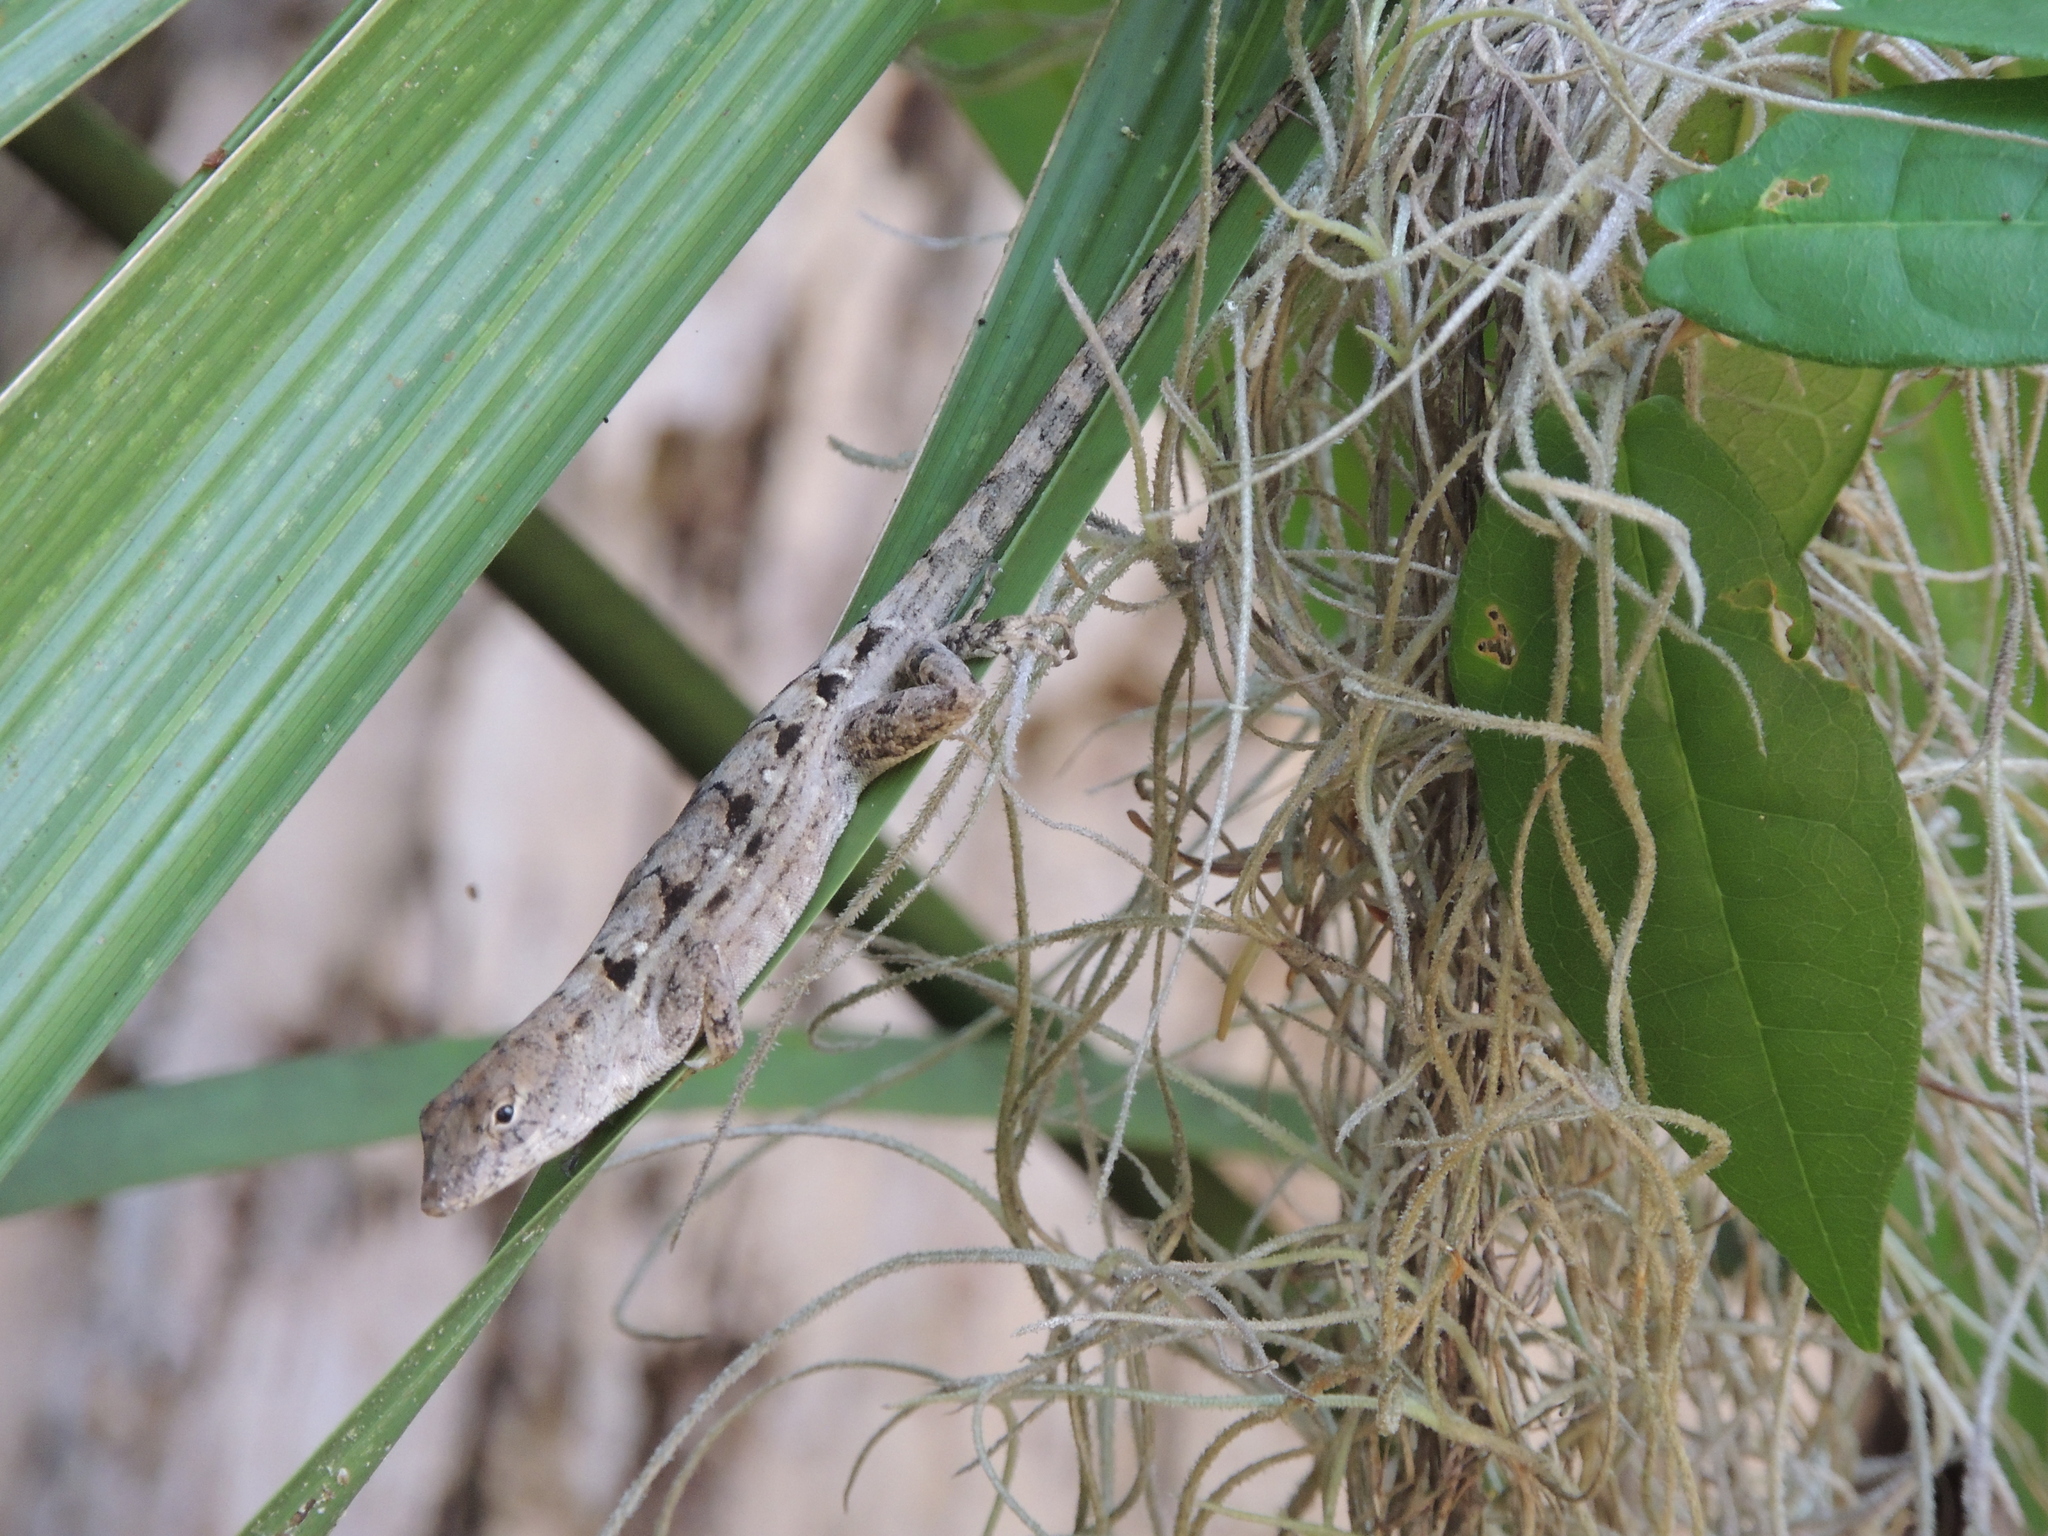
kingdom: Animalia
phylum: Chordata
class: Squamata
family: Dactyloidae
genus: Anolis
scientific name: Anolis sagrei
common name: Brown anole
